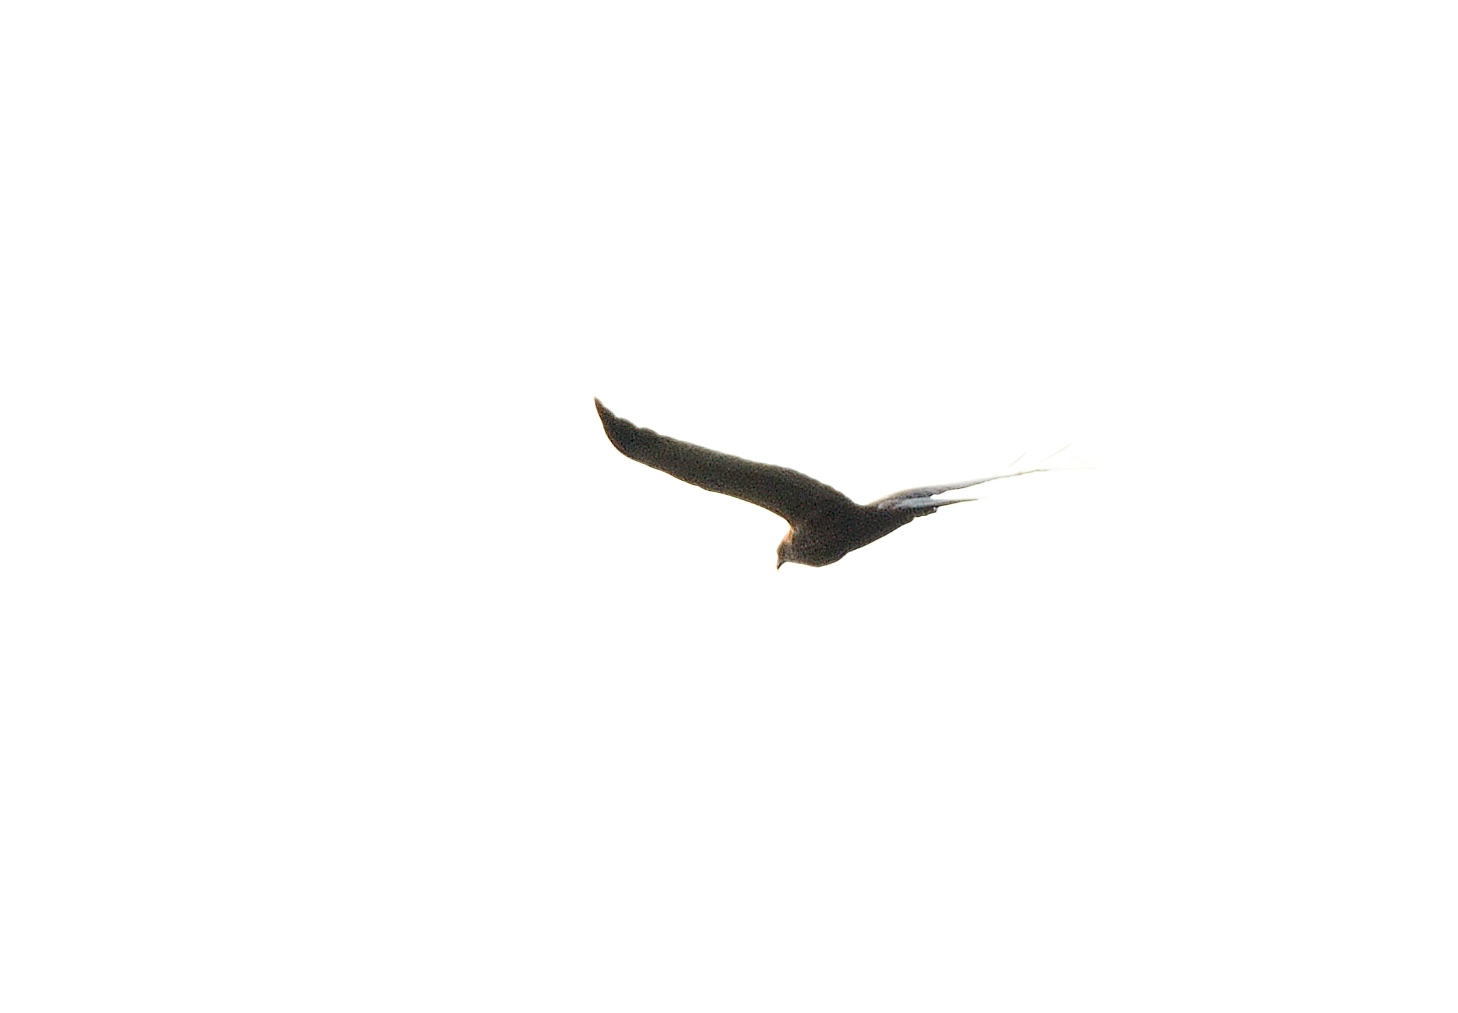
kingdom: Animalia
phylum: Chordata
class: Aves
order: Accipitriformes
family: Accipitridae
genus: Circus
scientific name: Circus aeruginosus
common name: Western marsh harrier
